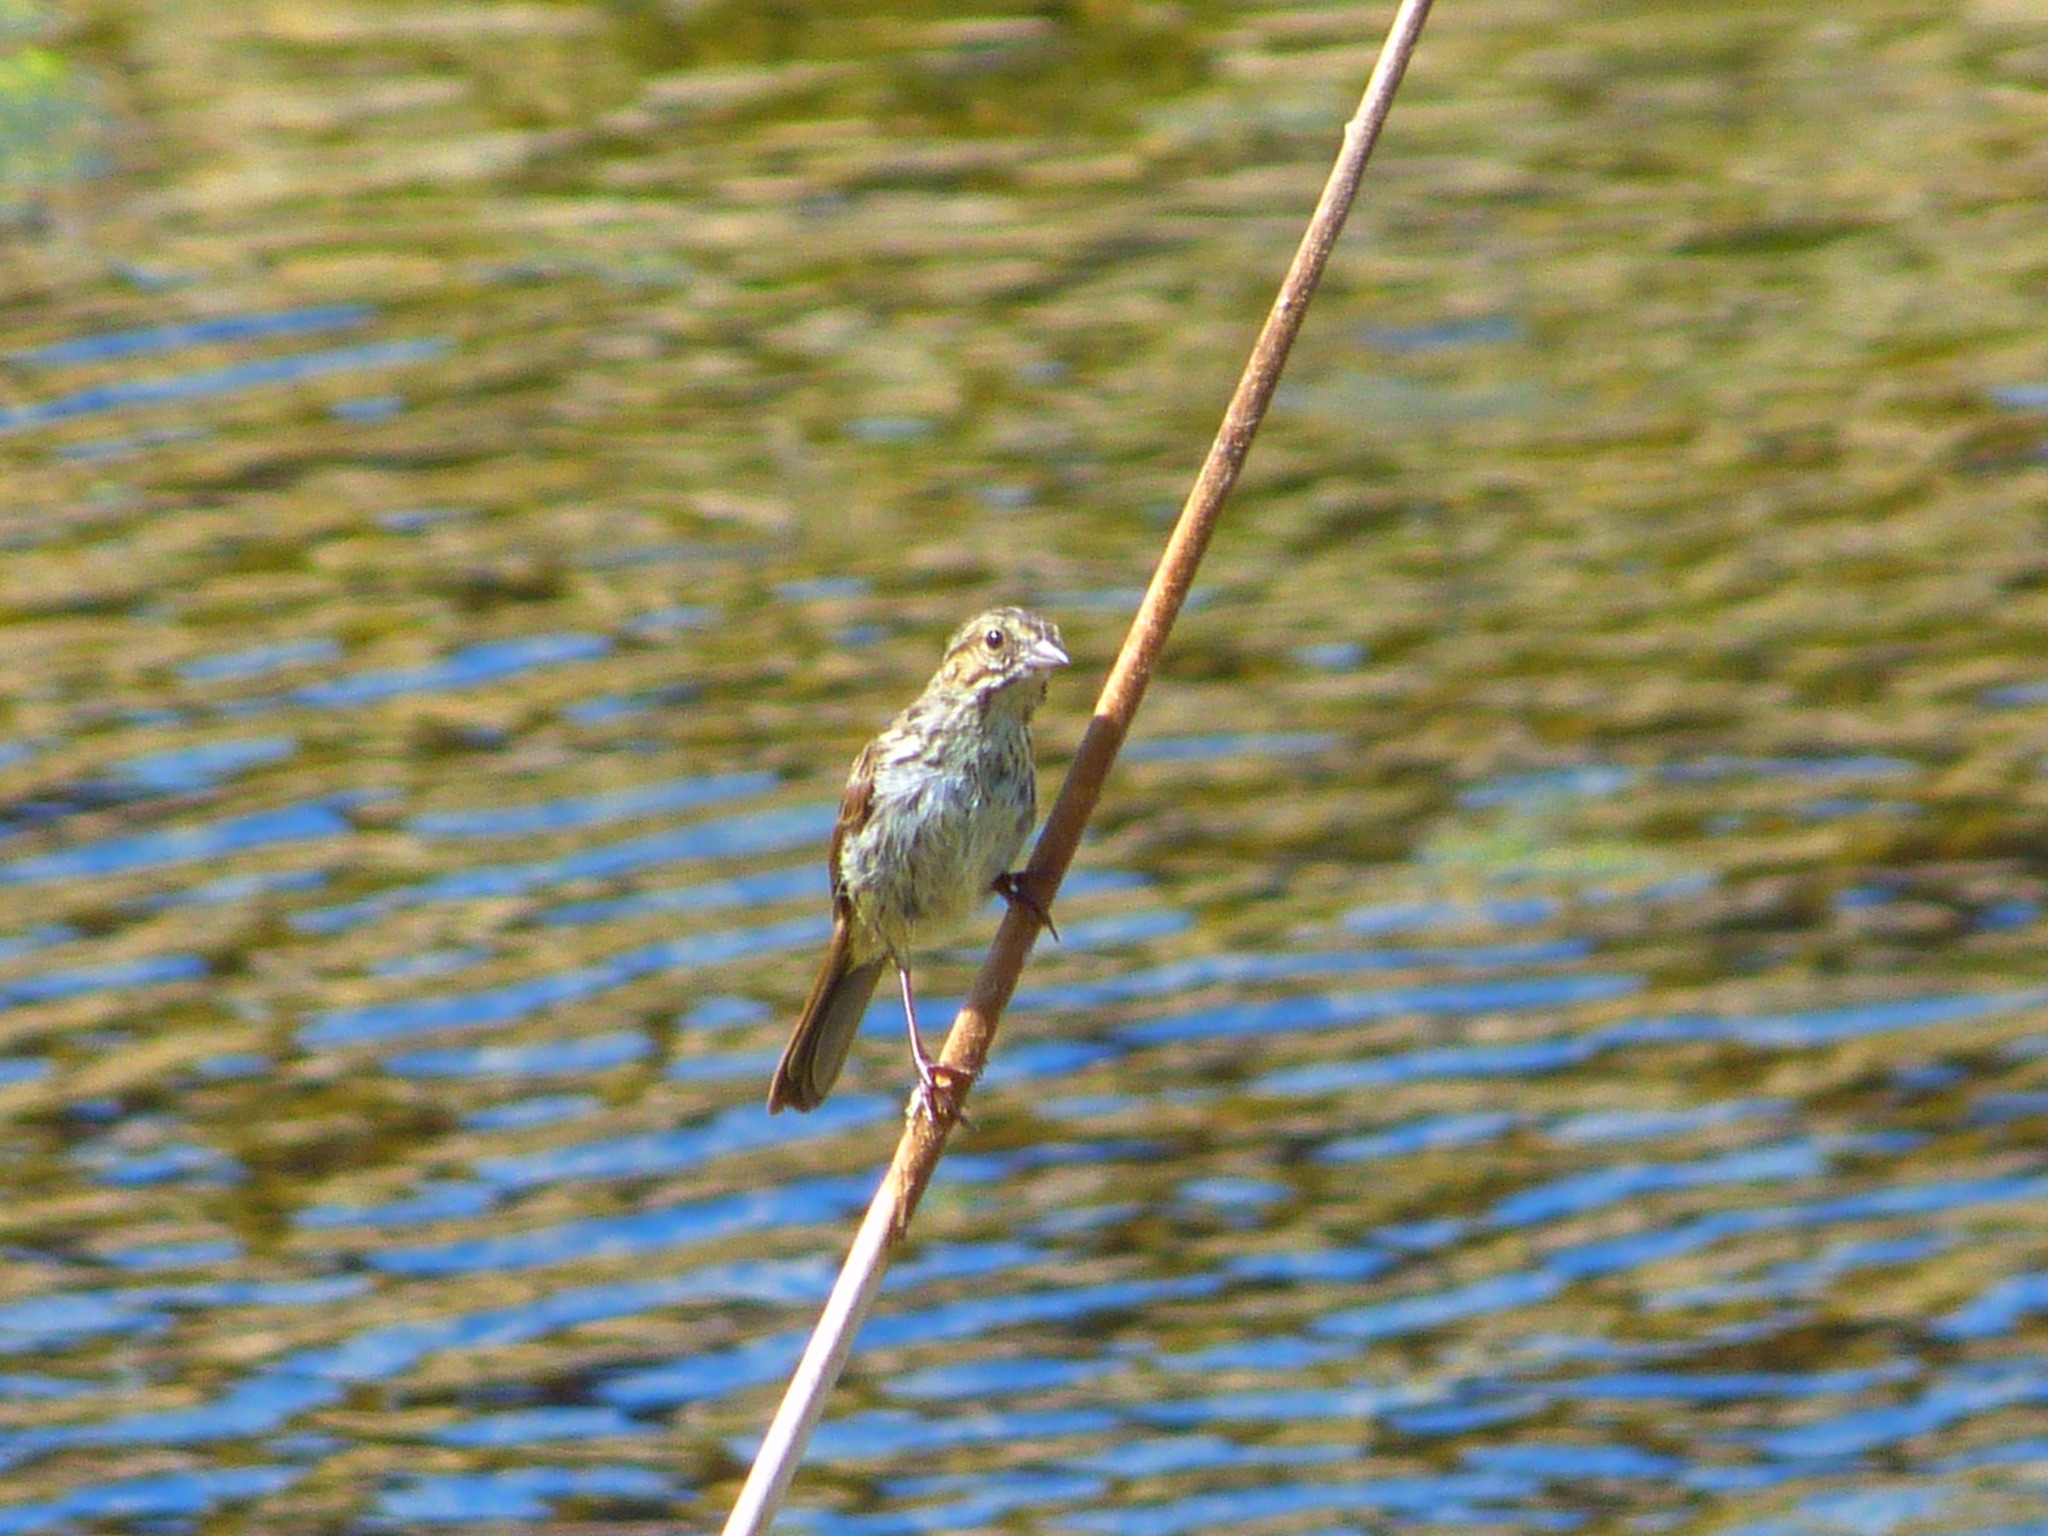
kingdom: Animalia
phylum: Chordata
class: Aves
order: Passeriformes
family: Passerellidae
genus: Passerculus
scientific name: Passerculus sandwichensis
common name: Savannah sparrow
